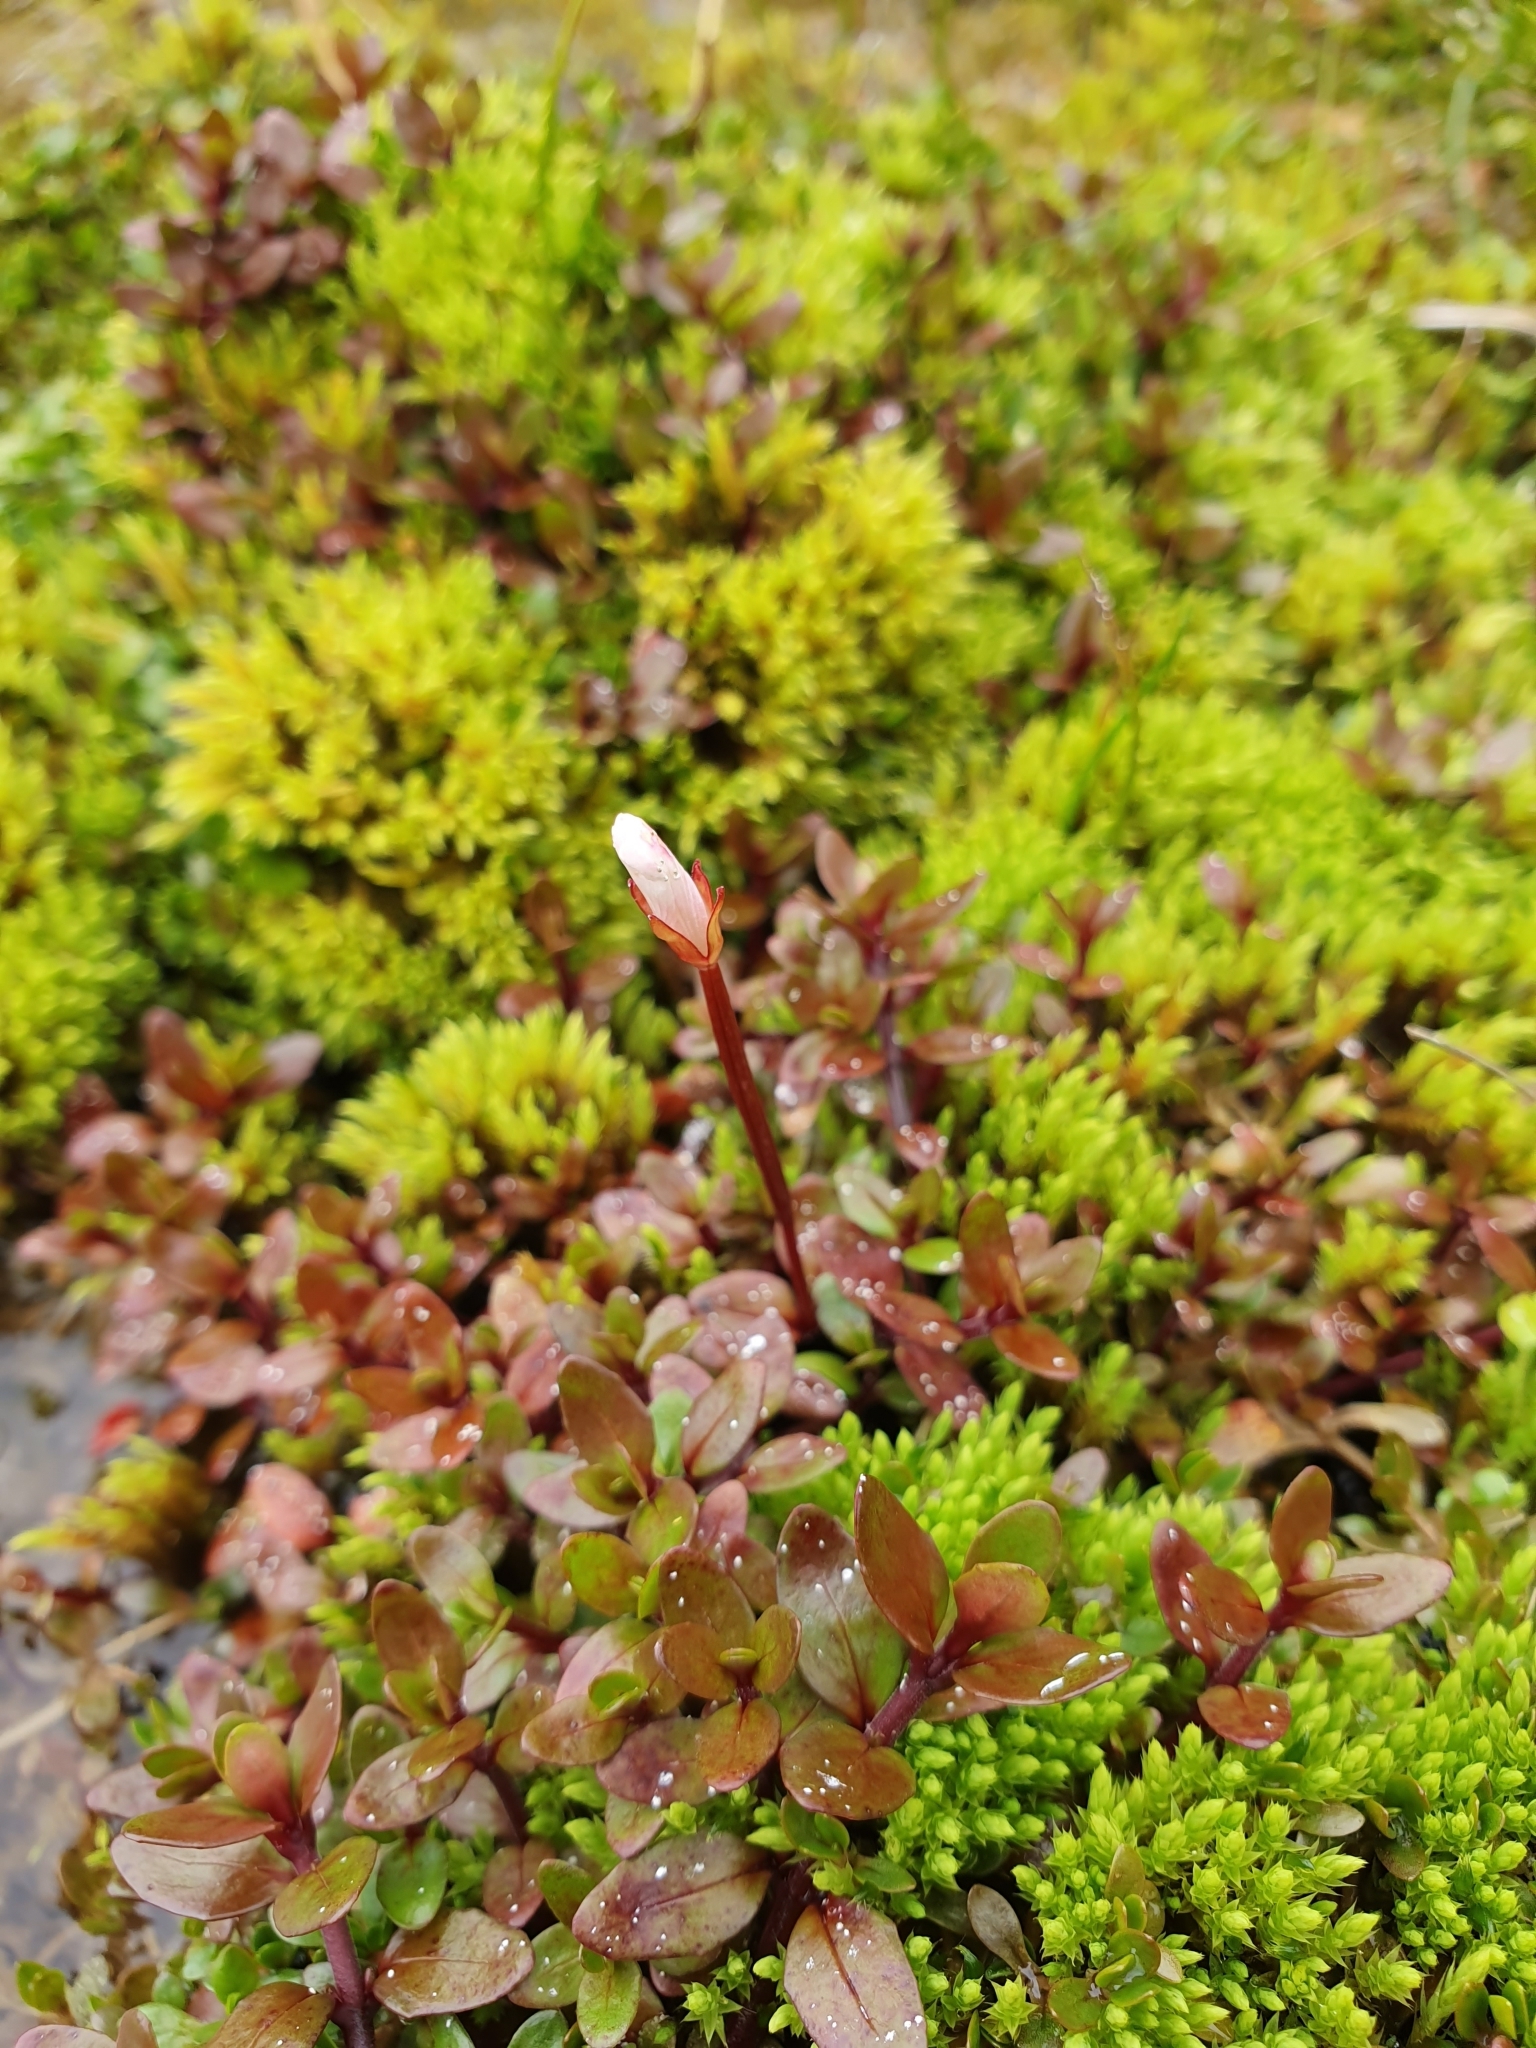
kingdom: Plantae
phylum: Tracheophyta
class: Magnoliopsida
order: Myrtales
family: Onagraceae
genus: Epilobium
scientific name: Epilobium macropus
